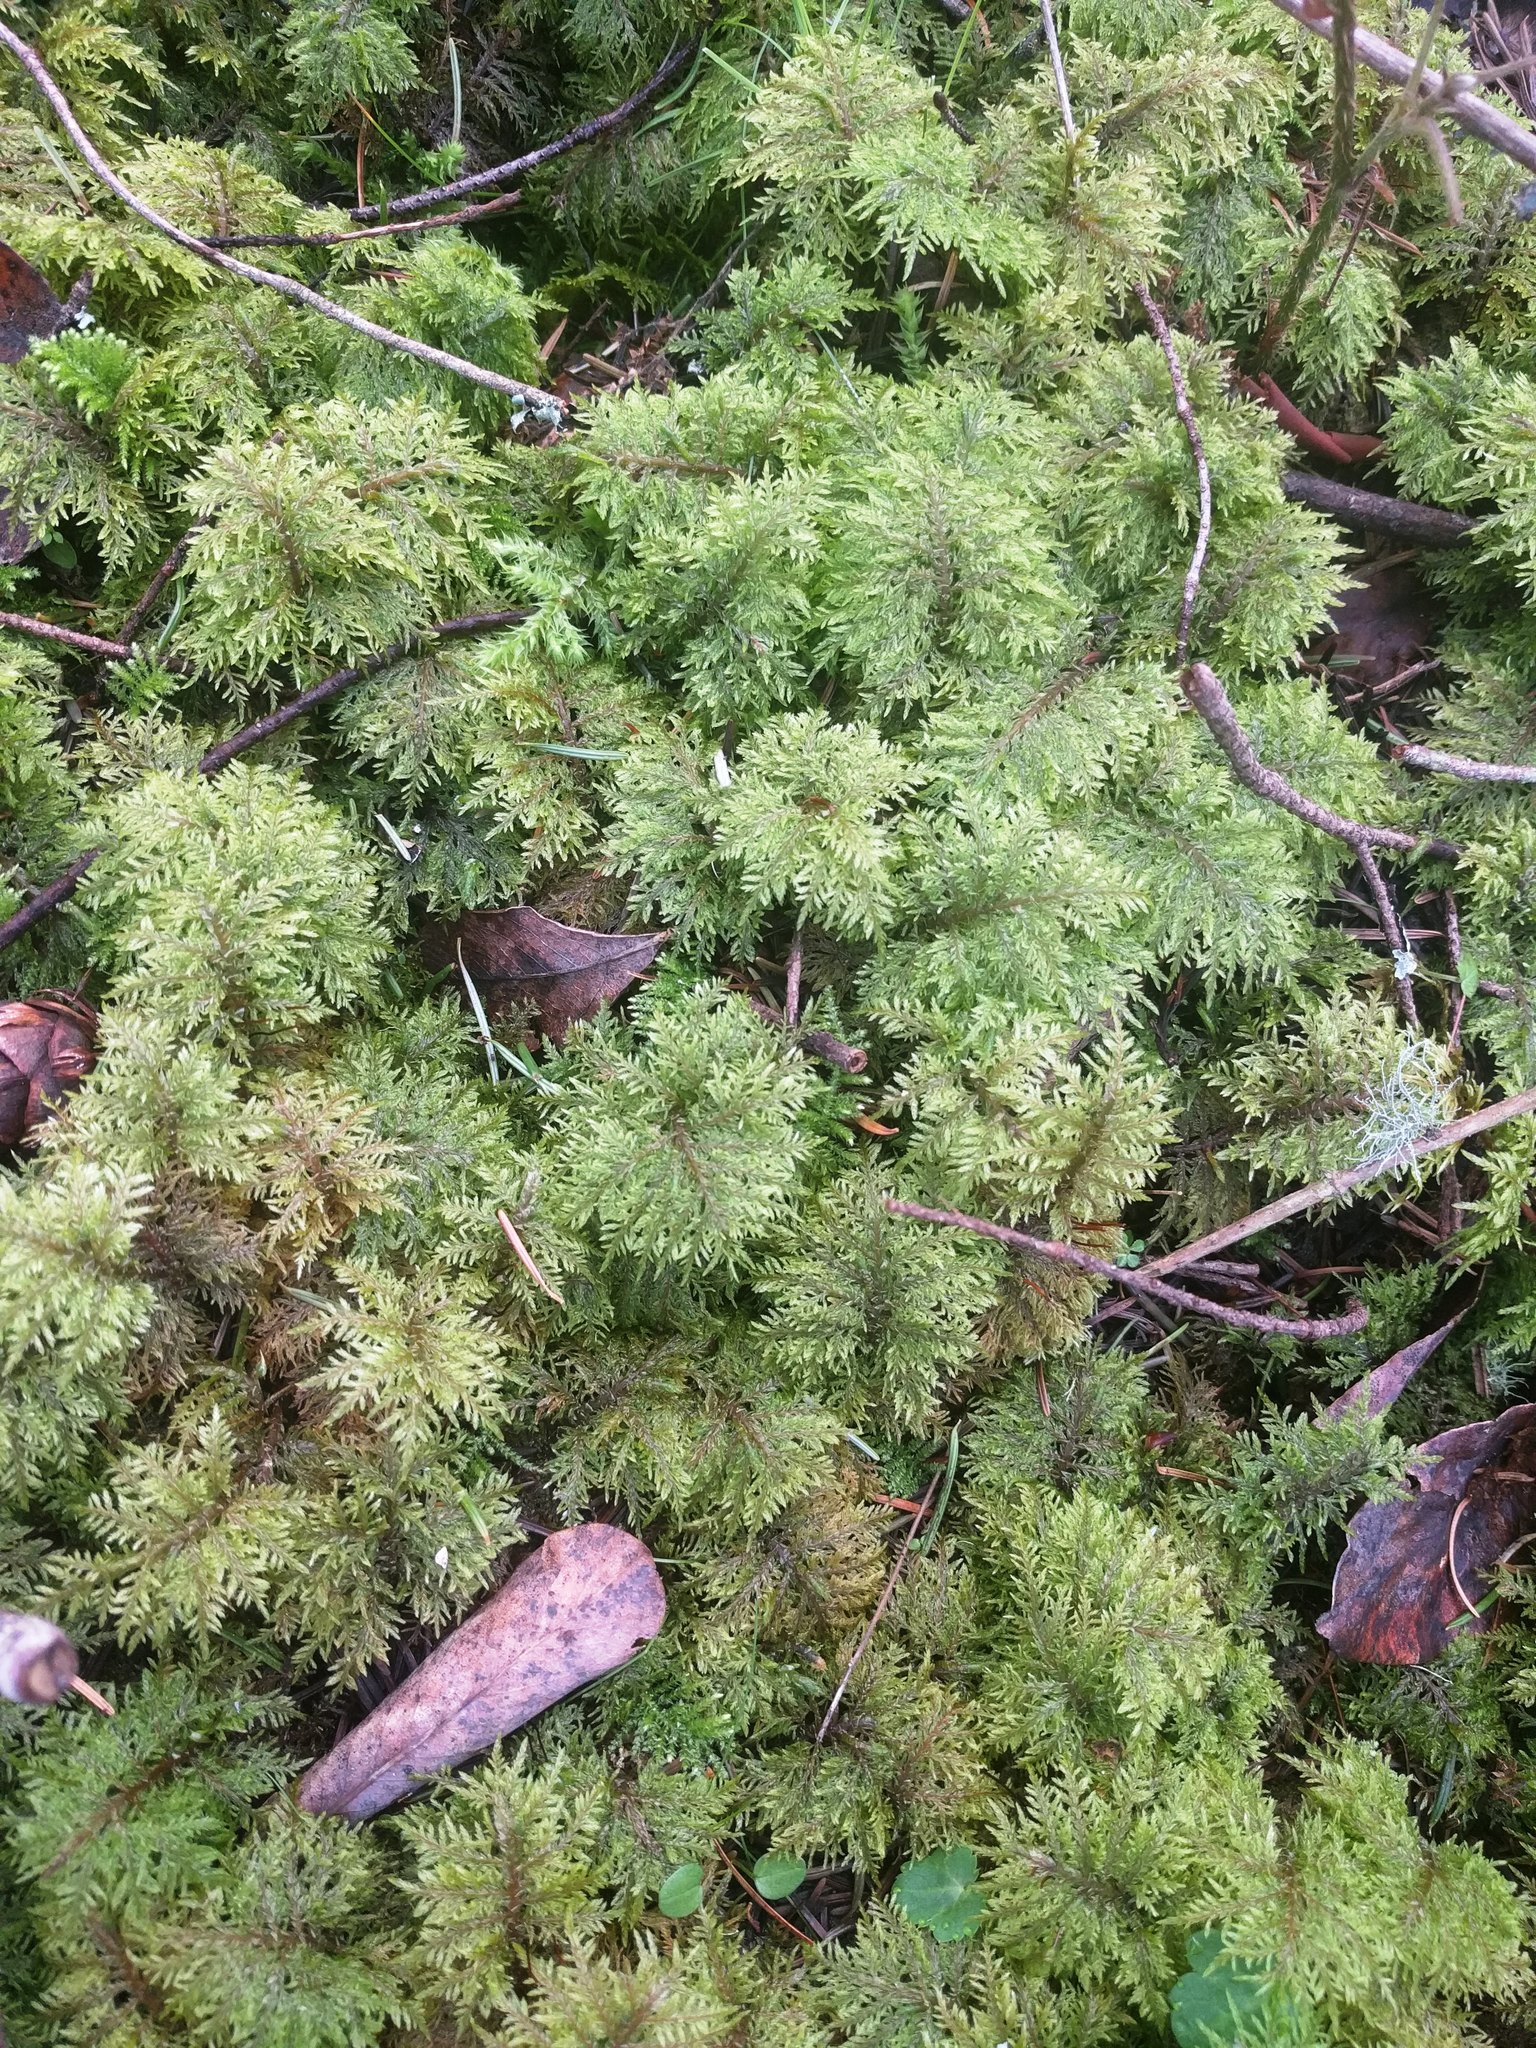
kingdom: Plantae
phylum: Bryophyta
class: Bryopsida
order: Hypnales
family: Hylocomiaceae
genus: Hylocomium
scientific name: Hylocomium splendens
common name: Stairstep moss
